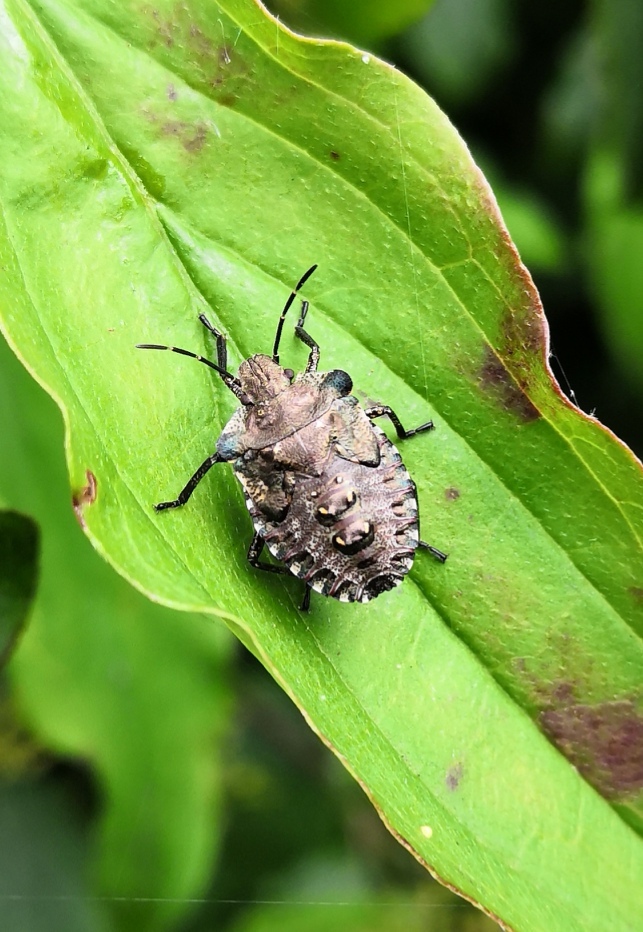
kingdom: Animalia
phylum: Arthropoda
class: Insecta
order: Hemiptera
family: Pentatomidae
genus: Pentatoma
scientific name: Pentatoma rufipes
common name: Forest bug
